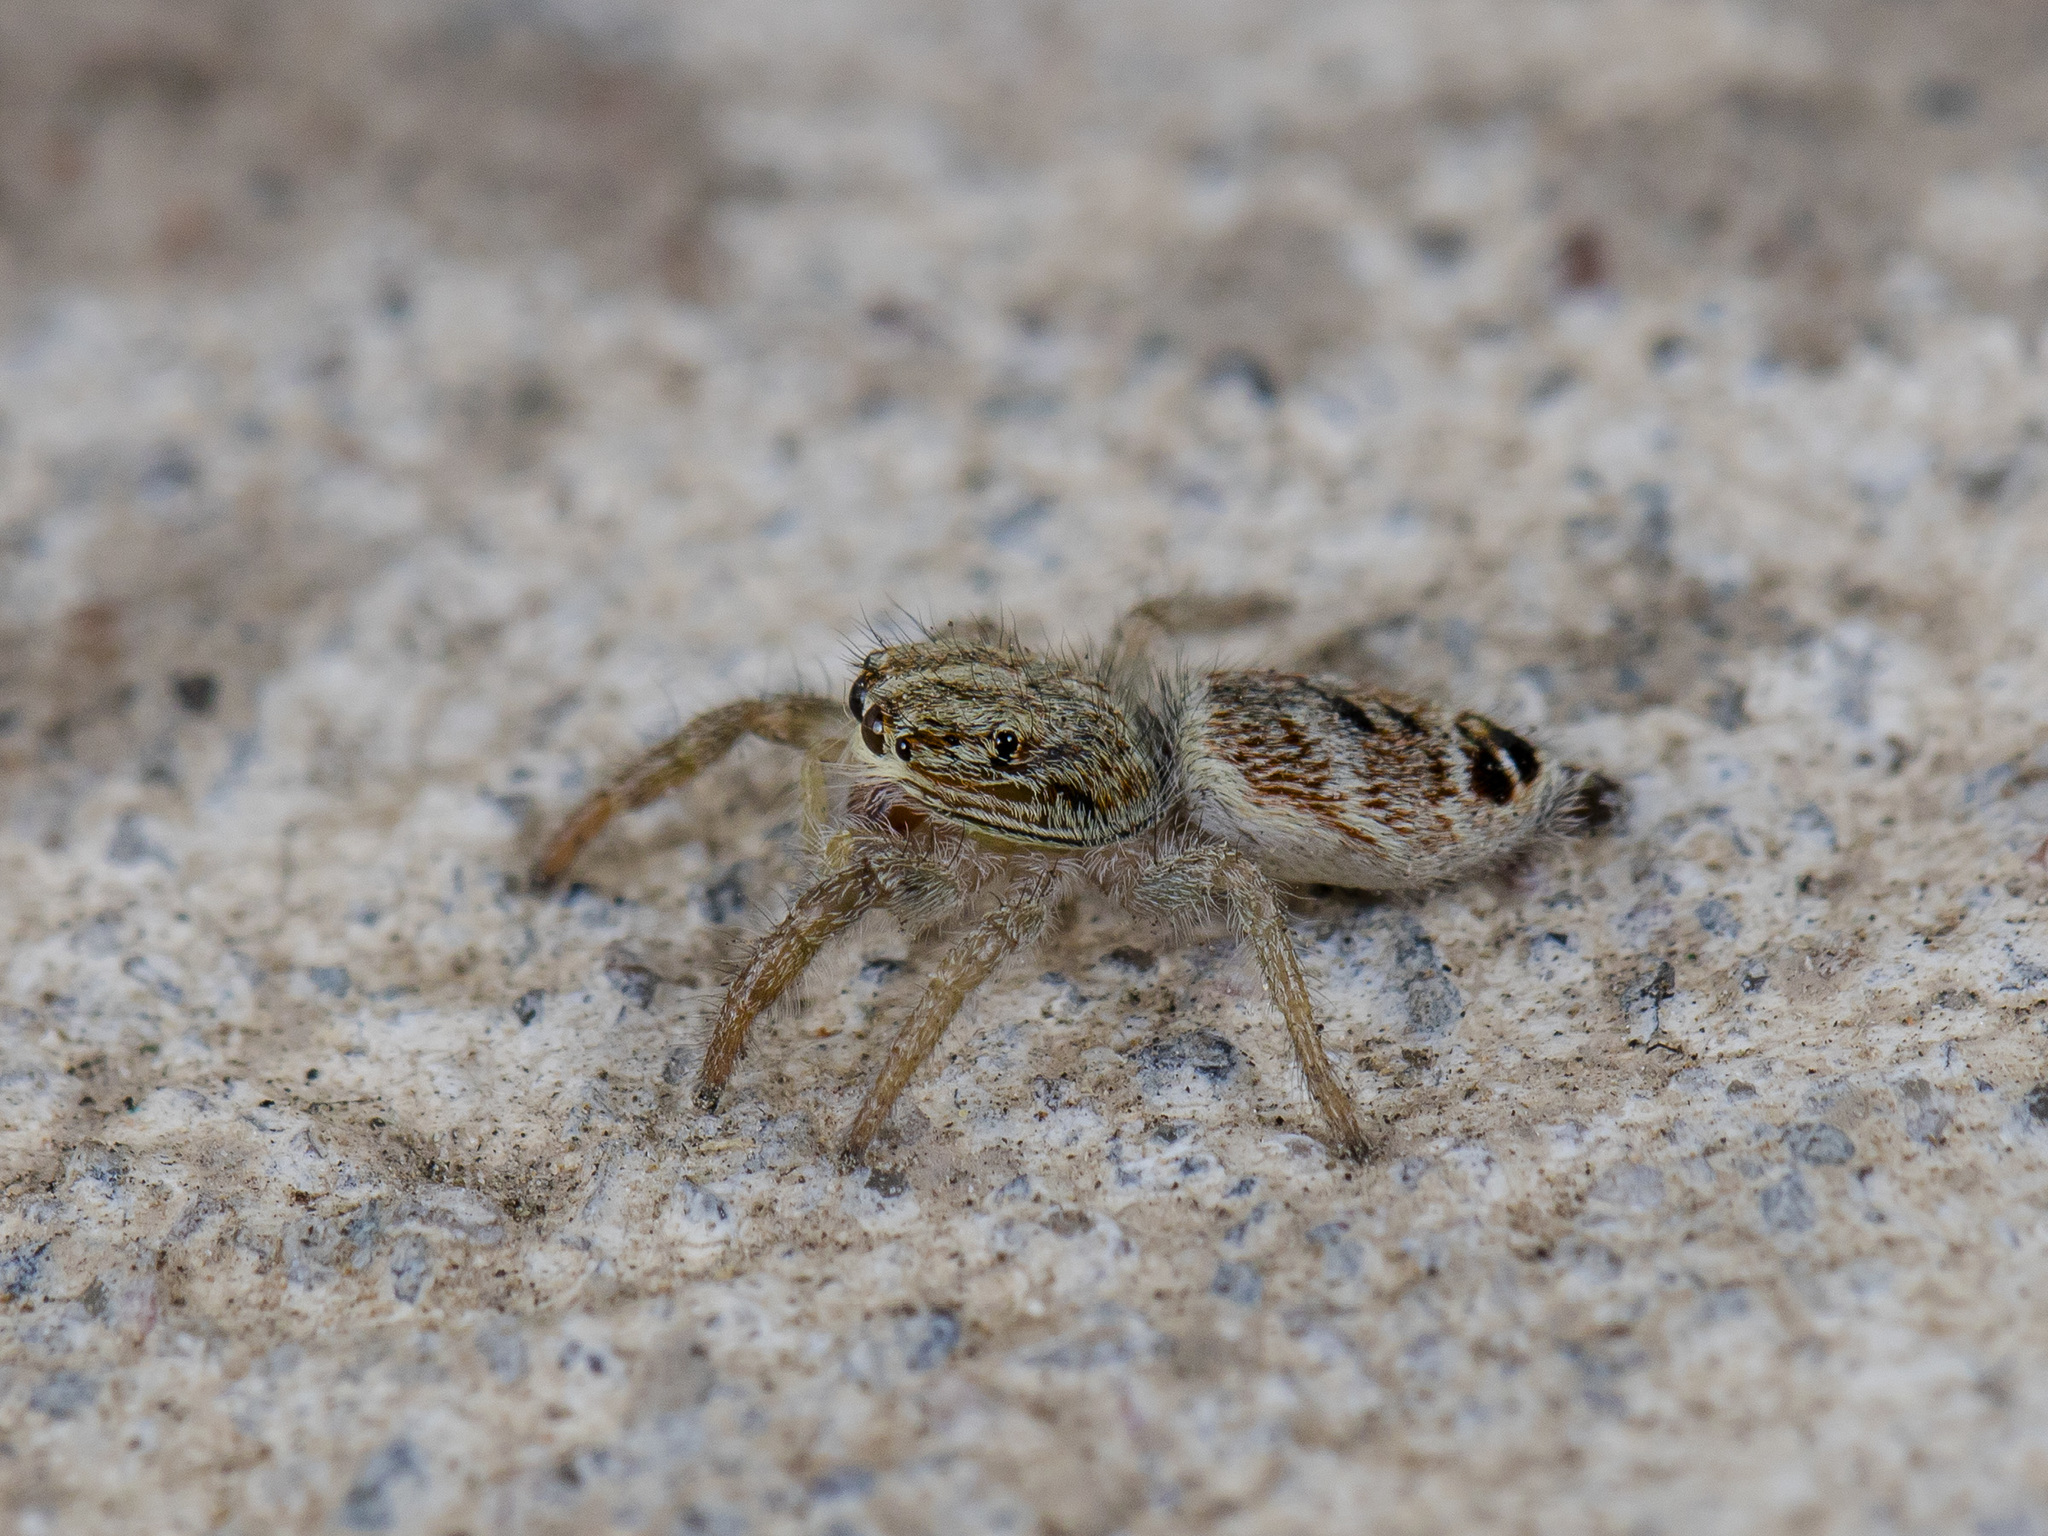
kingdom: Animalia
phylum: Arthropoda
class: Arachnida
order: Araneae
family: Salticidae
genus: Rudakius
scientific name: Rudakius cinctus
